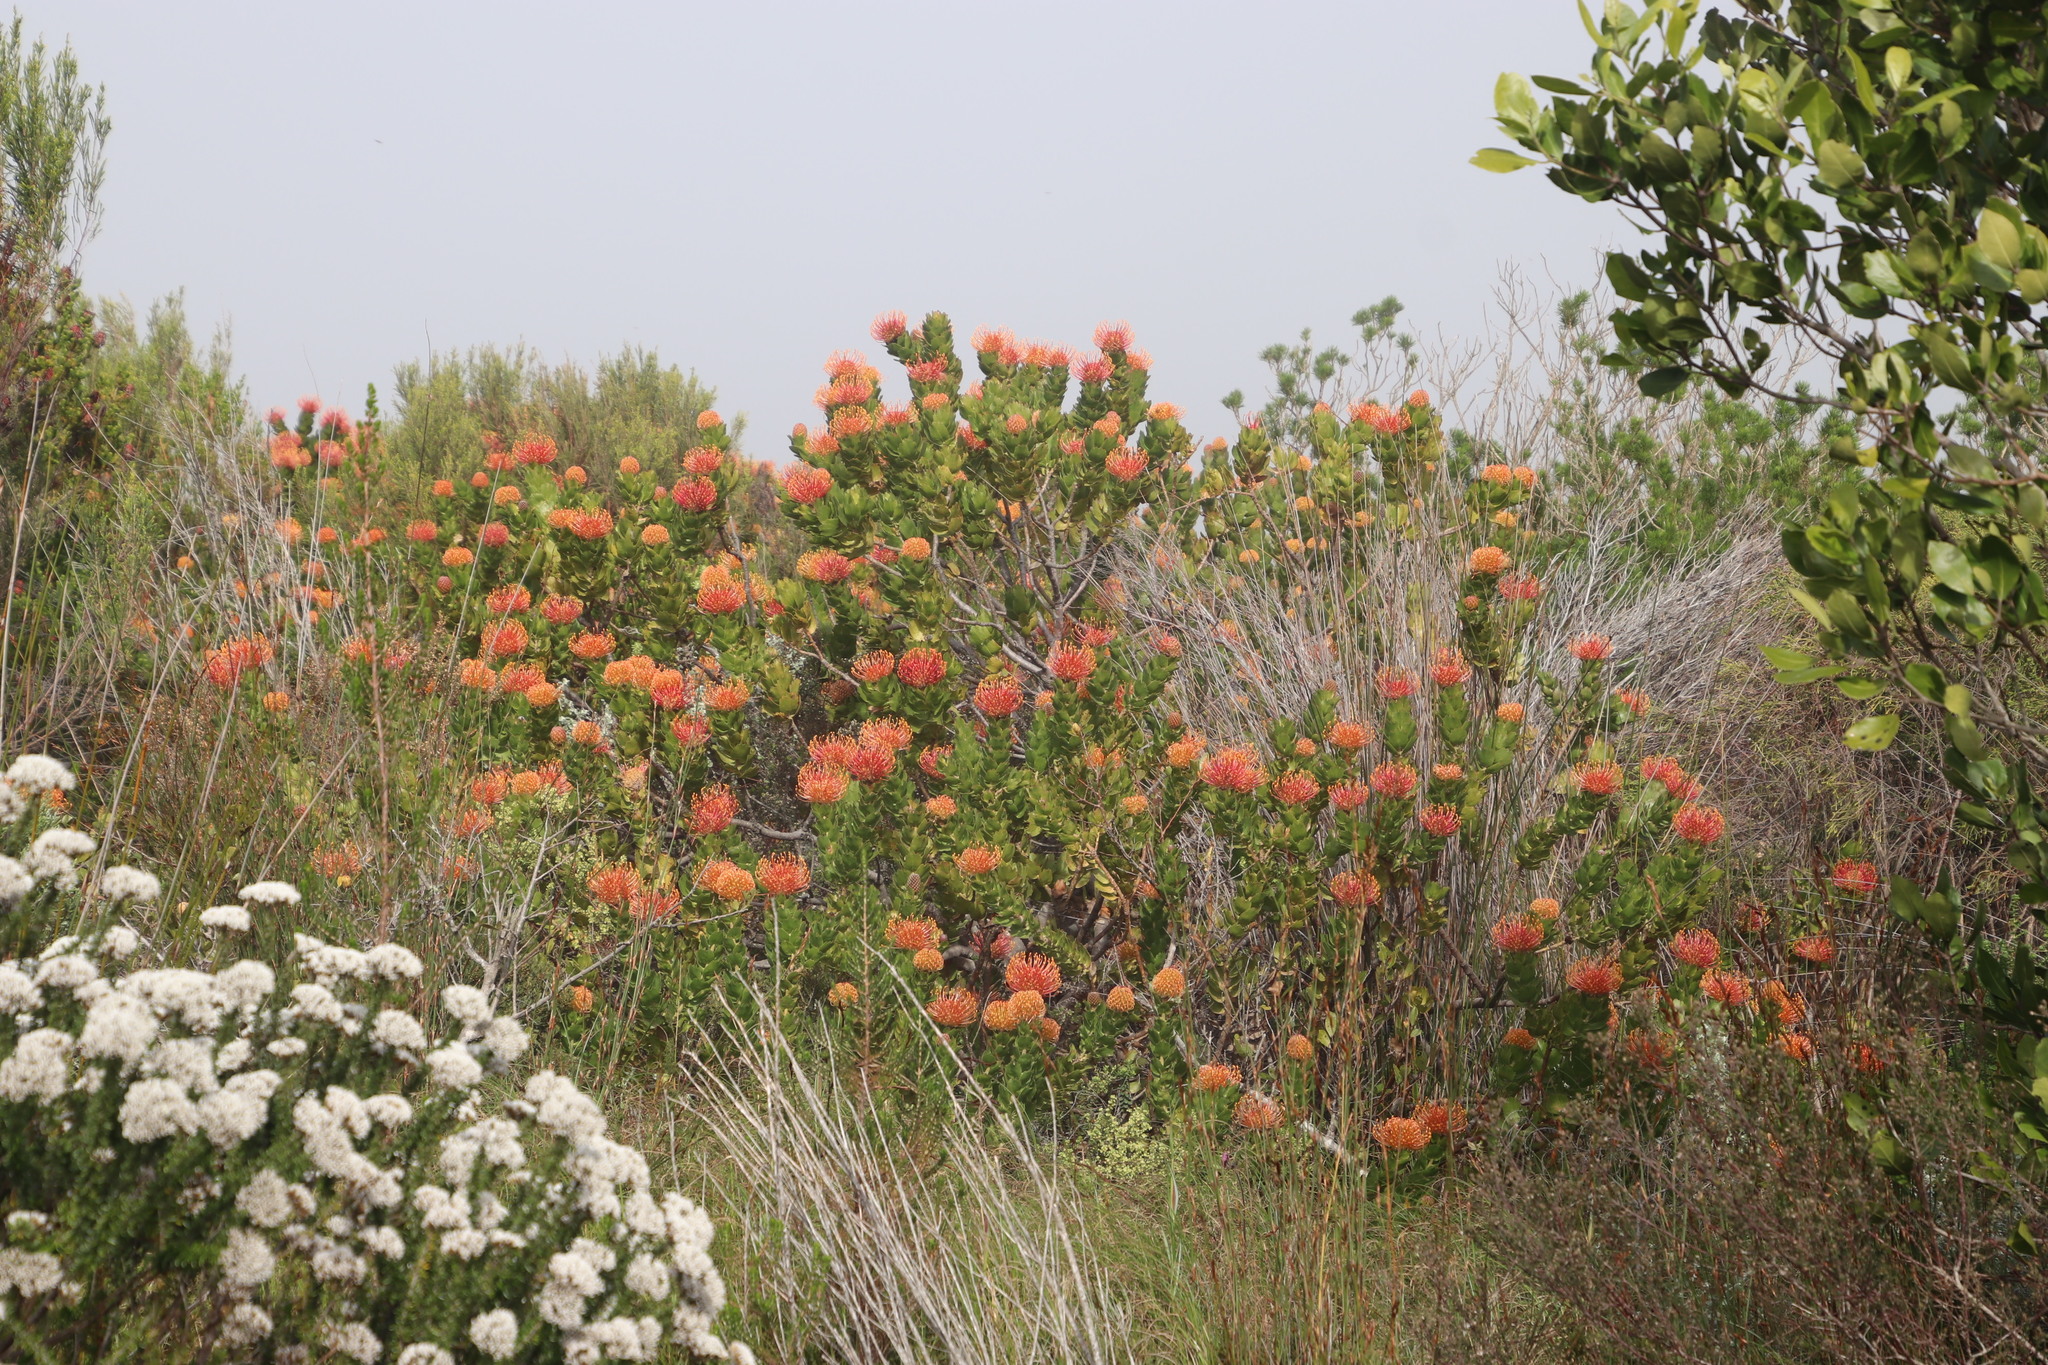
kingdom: Plantae
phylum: Tracheophyta
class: Magnoliopsida
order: Proteales
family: Proteaceae
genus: Leucospermum
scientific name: Leucospermum patersonii
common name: False tree pincushion
